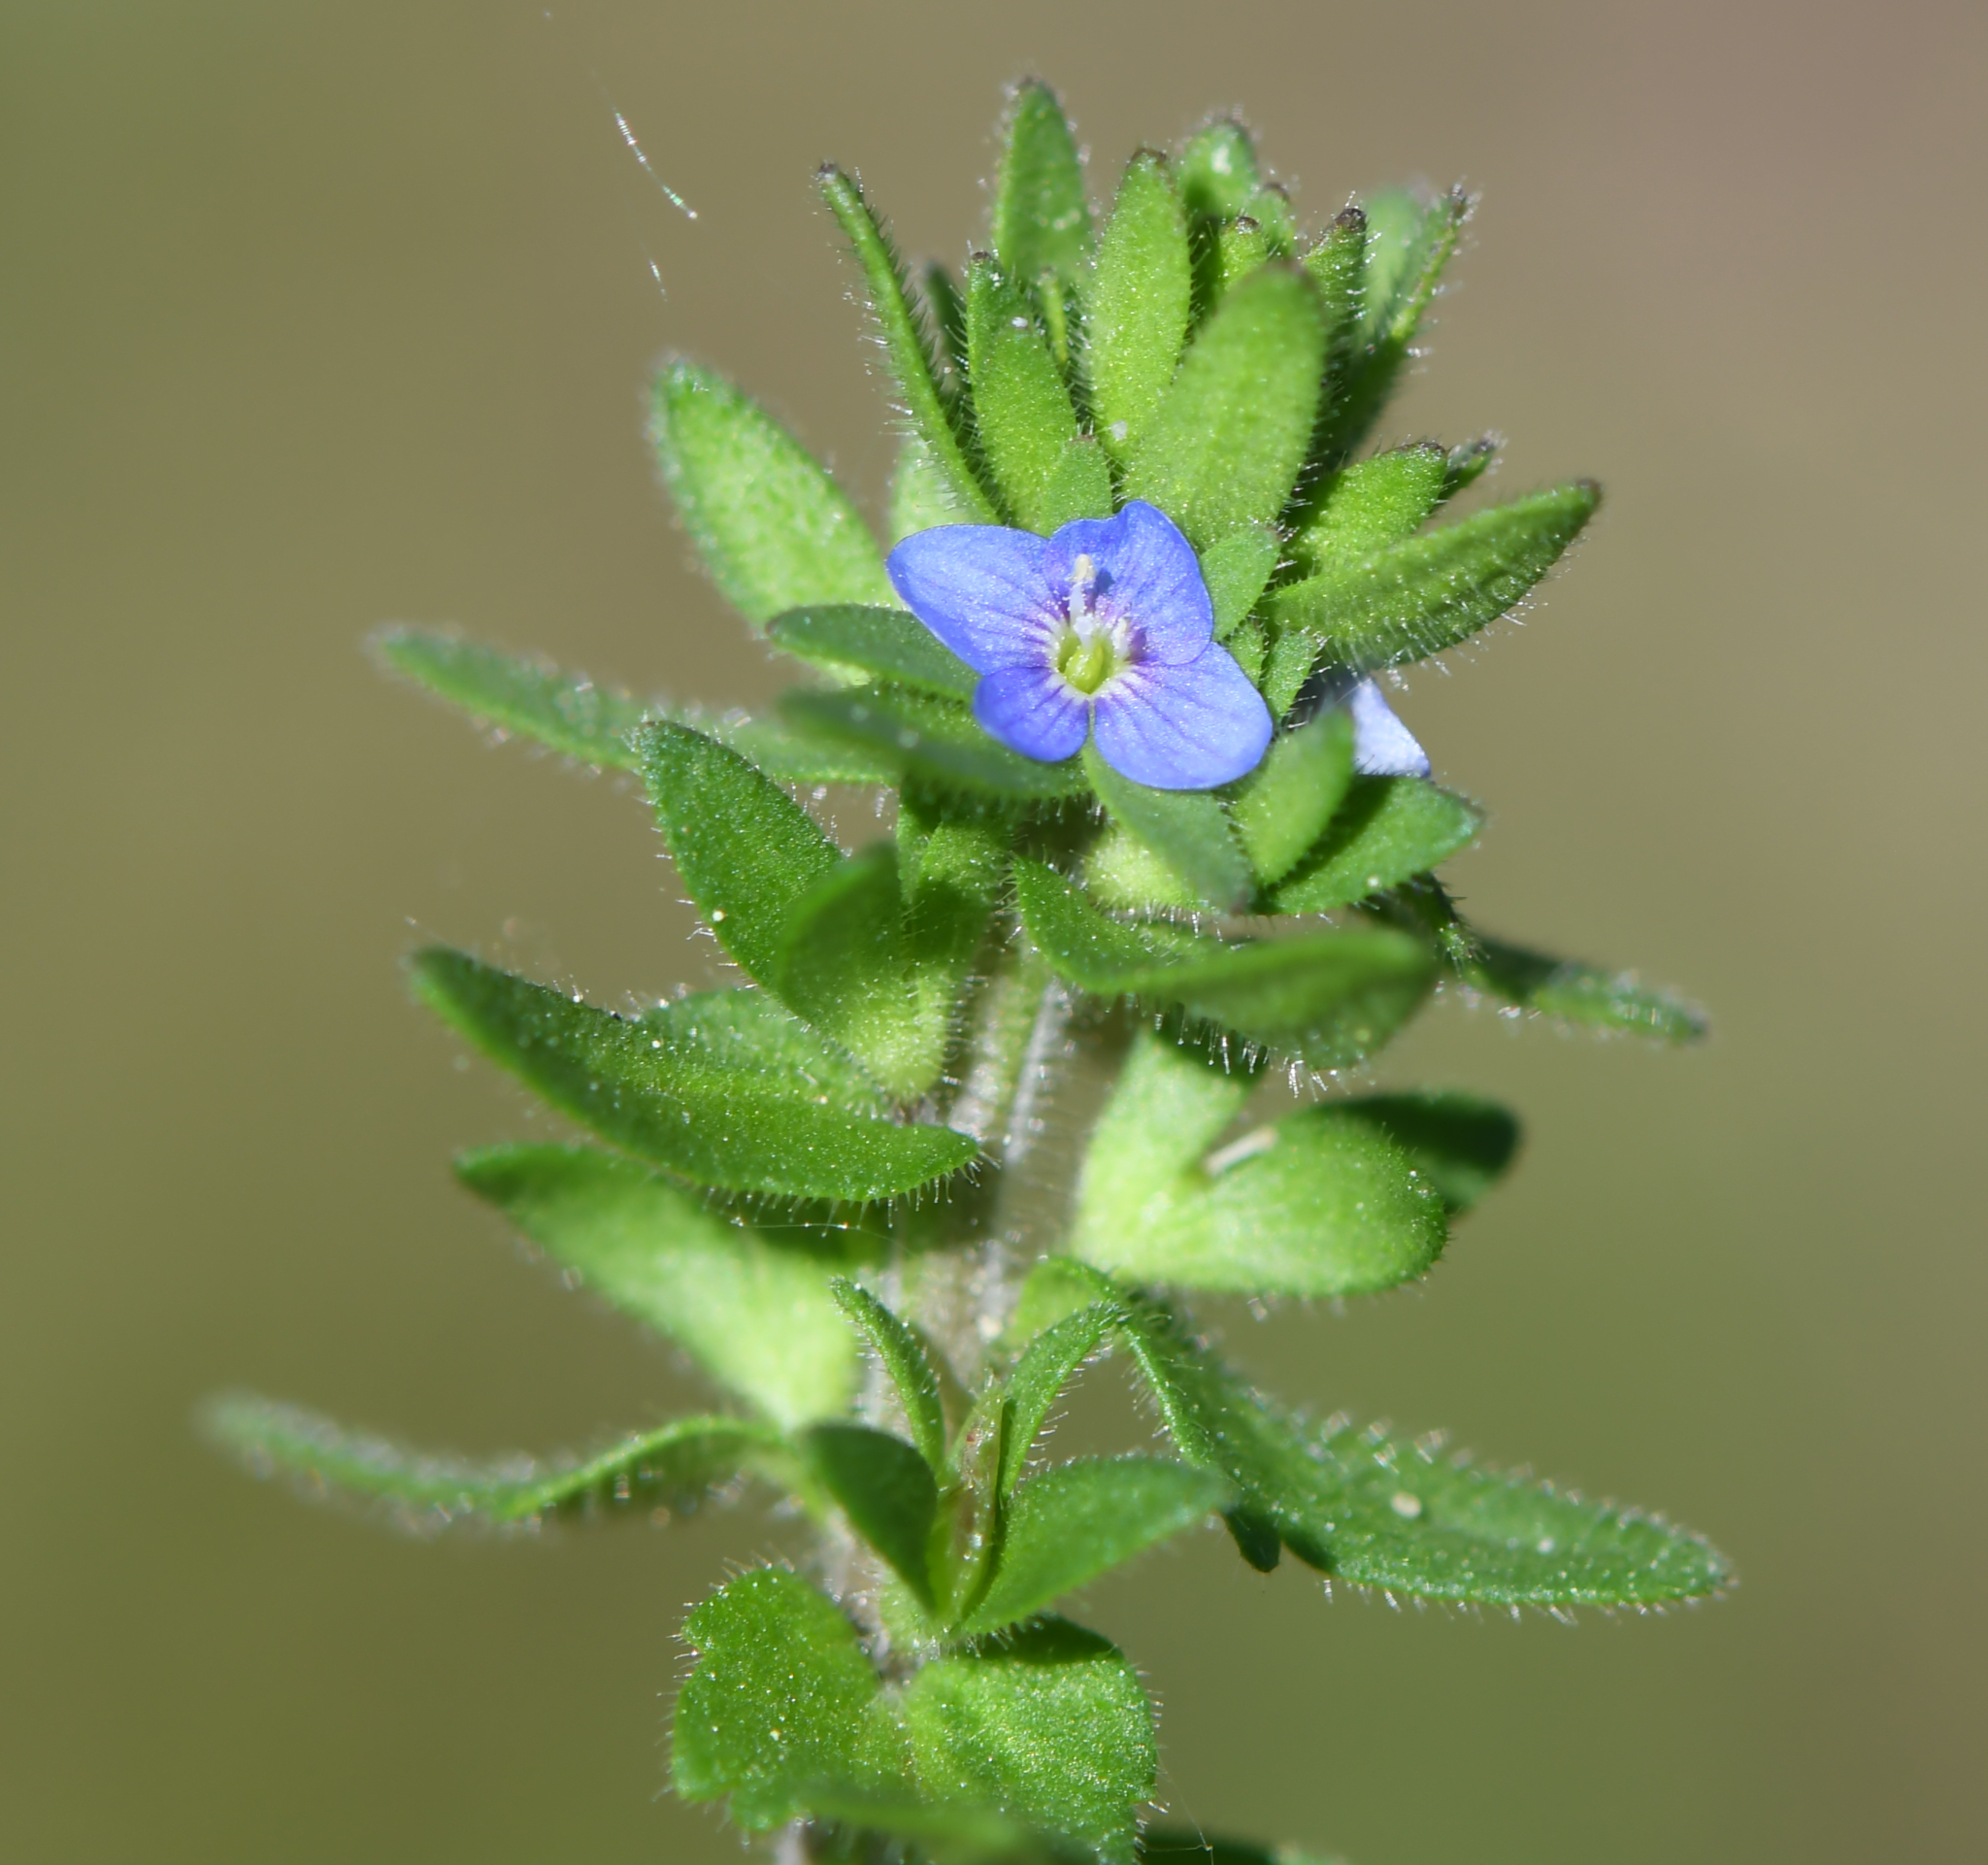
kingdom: Plantae
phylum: Tracheophyta
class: Magnoliopsida
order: Lamiales
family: Plantaginaceae
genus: Veronica
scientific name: Veronica arvensis
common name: Corn speedwell
